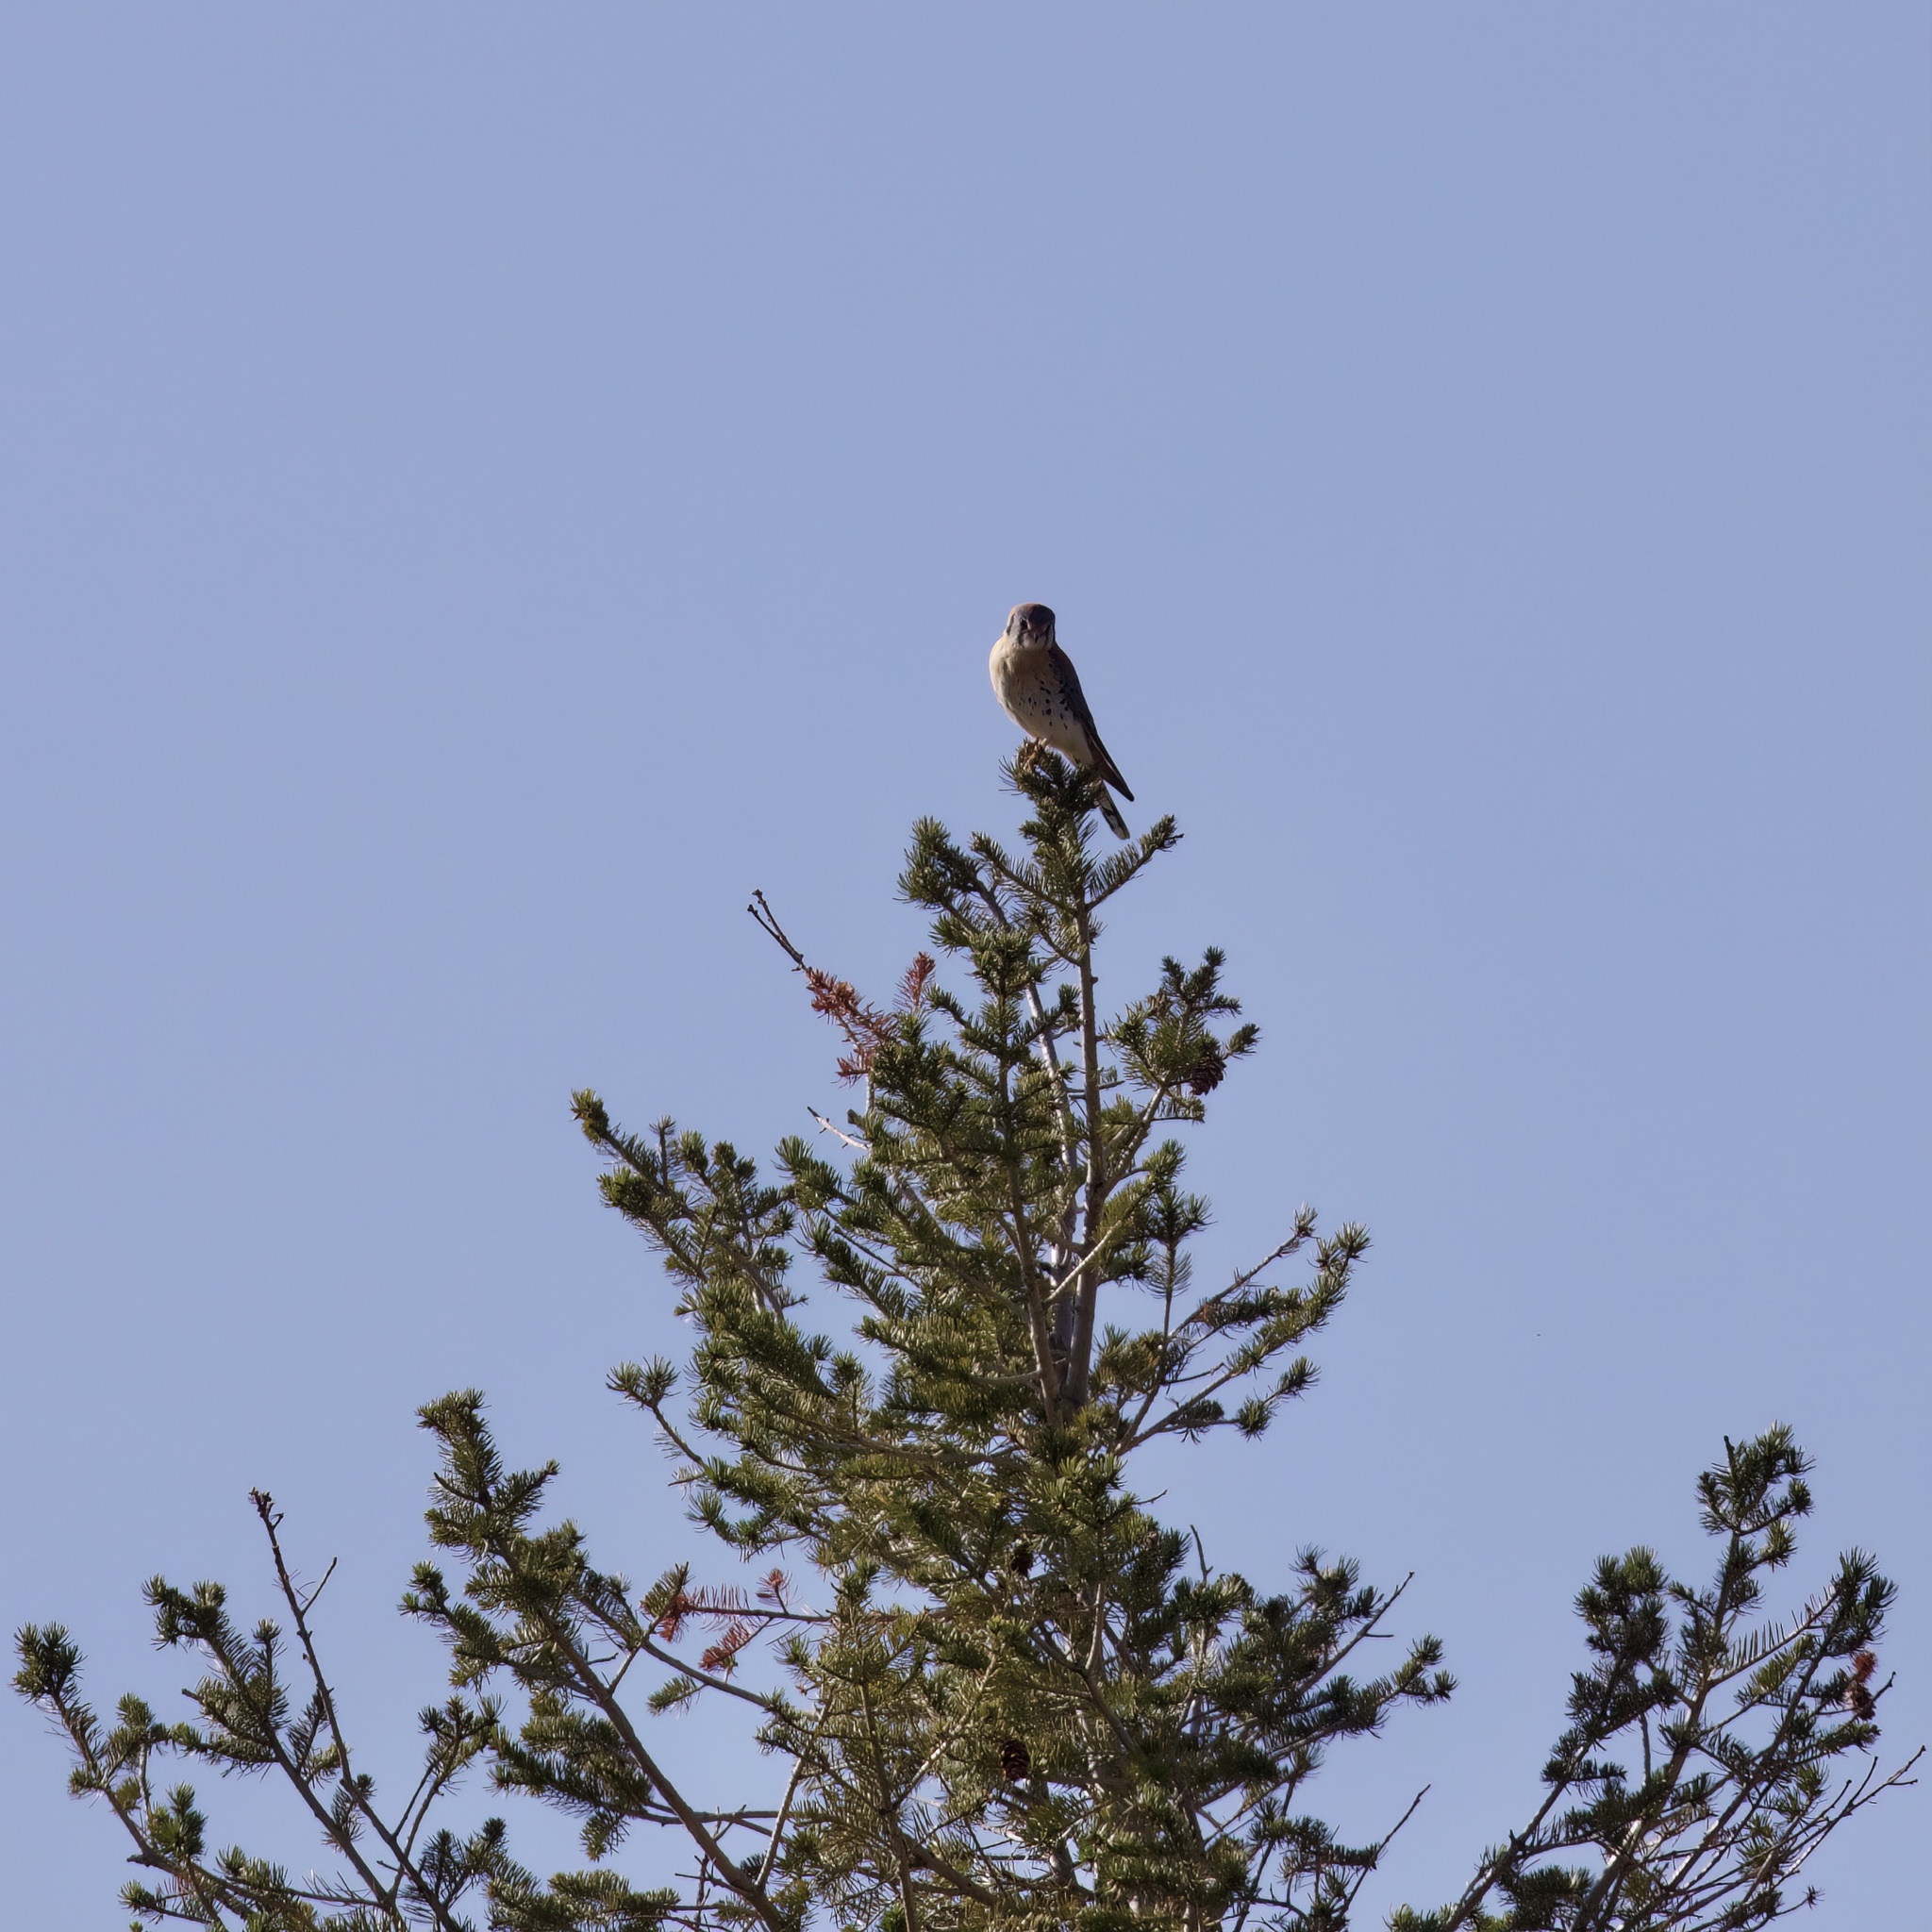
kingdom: Animalia
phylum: Chordata
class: Aves
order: Falconiformes
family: Falconidae
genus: Falco
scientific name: Falco sparverius
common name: American kestrel
